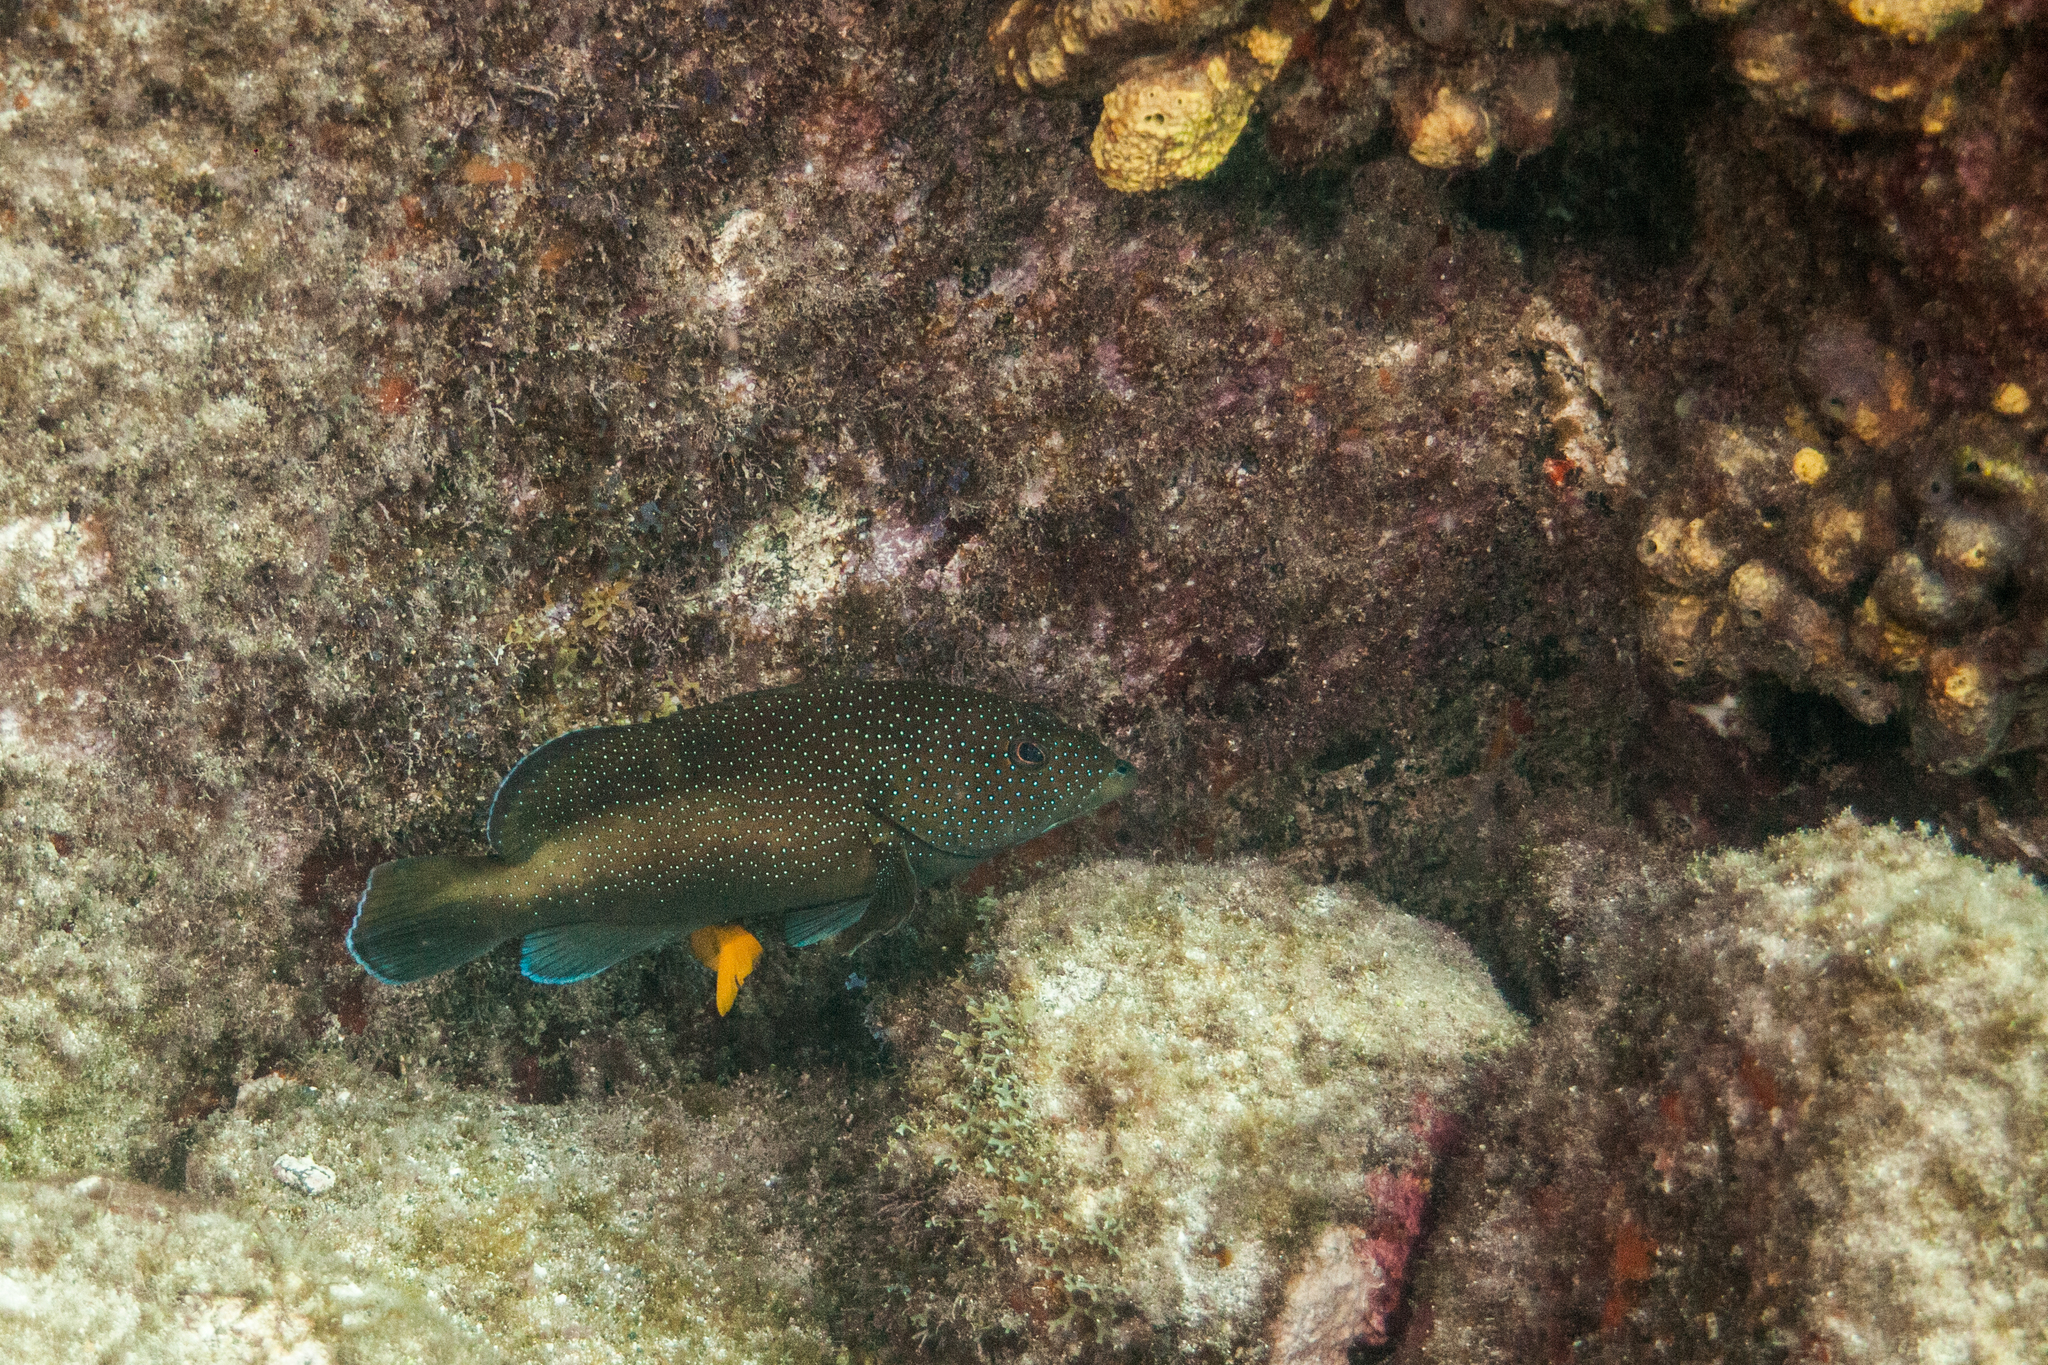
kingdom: Animalia
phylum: Chordata
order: Perciformes
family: Serranidae
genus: Cephalopholis
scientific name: Cephalopholis fulva
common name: Butterfish
